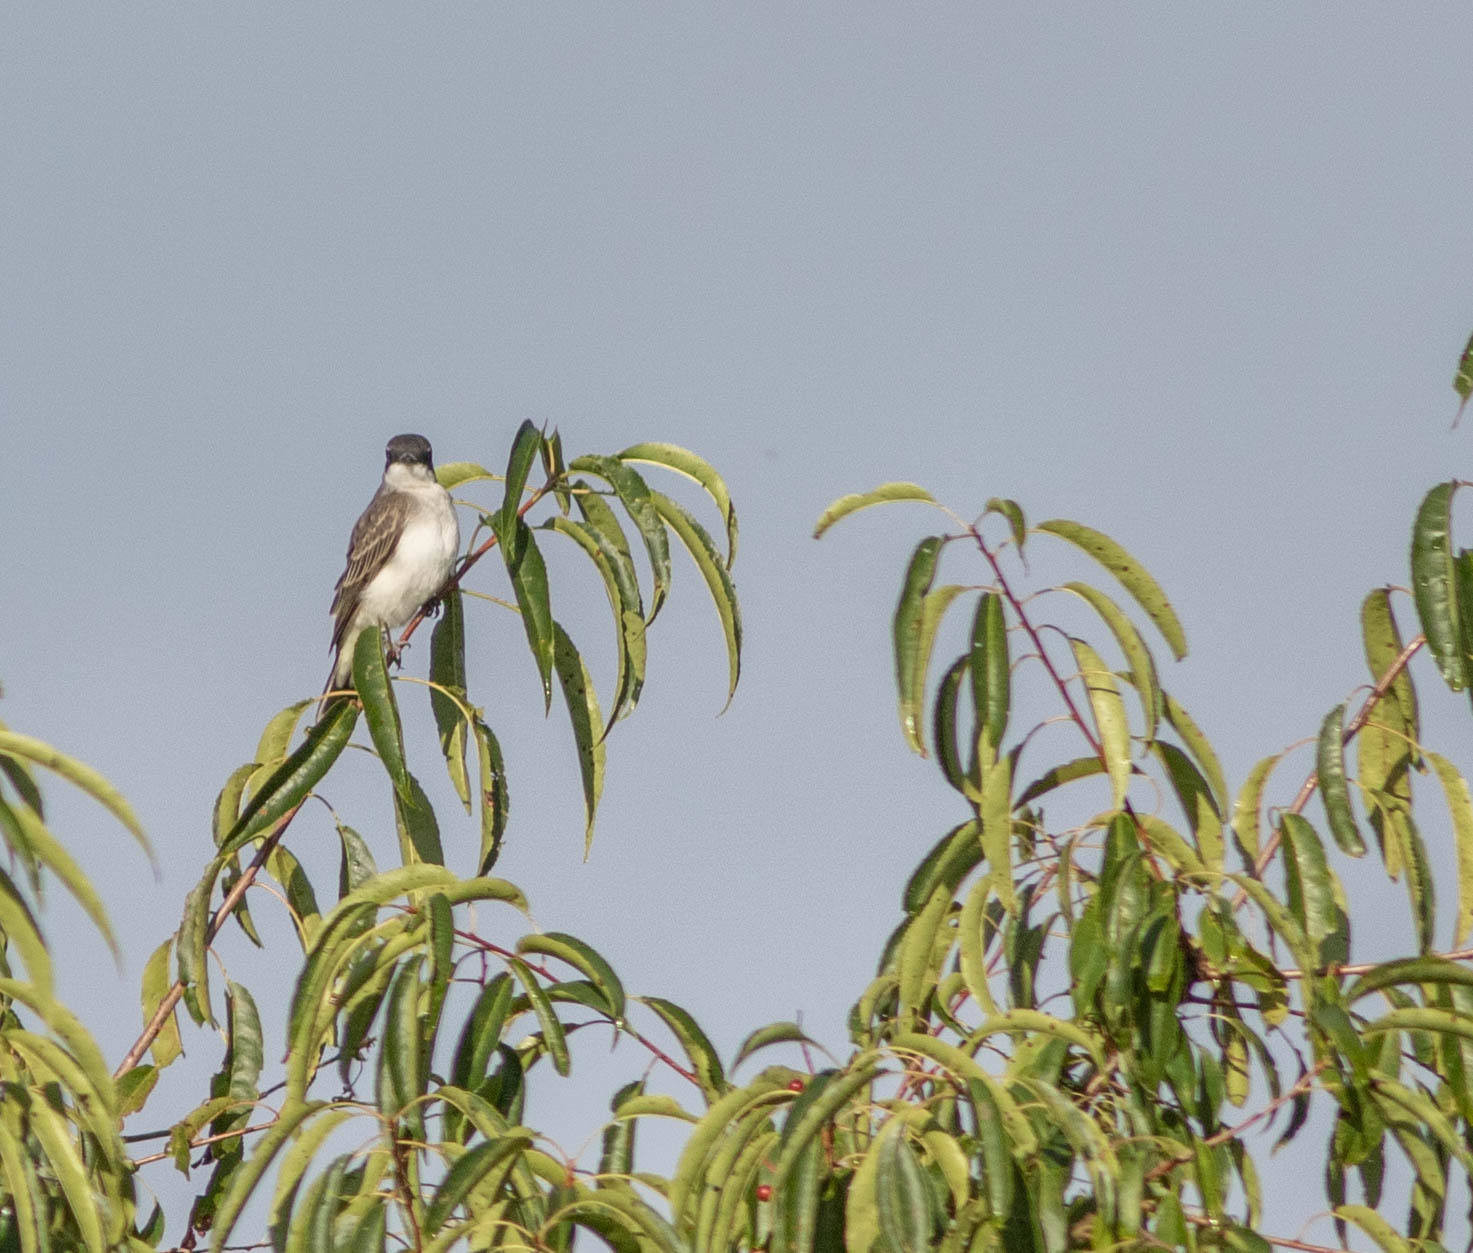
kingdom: Animalia
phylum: Chordata
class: Aves
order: Passeriformes
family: Tyrannidae
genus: Tyrannus
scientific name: Tyrannus tyrannus
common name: Eastern kingbird
